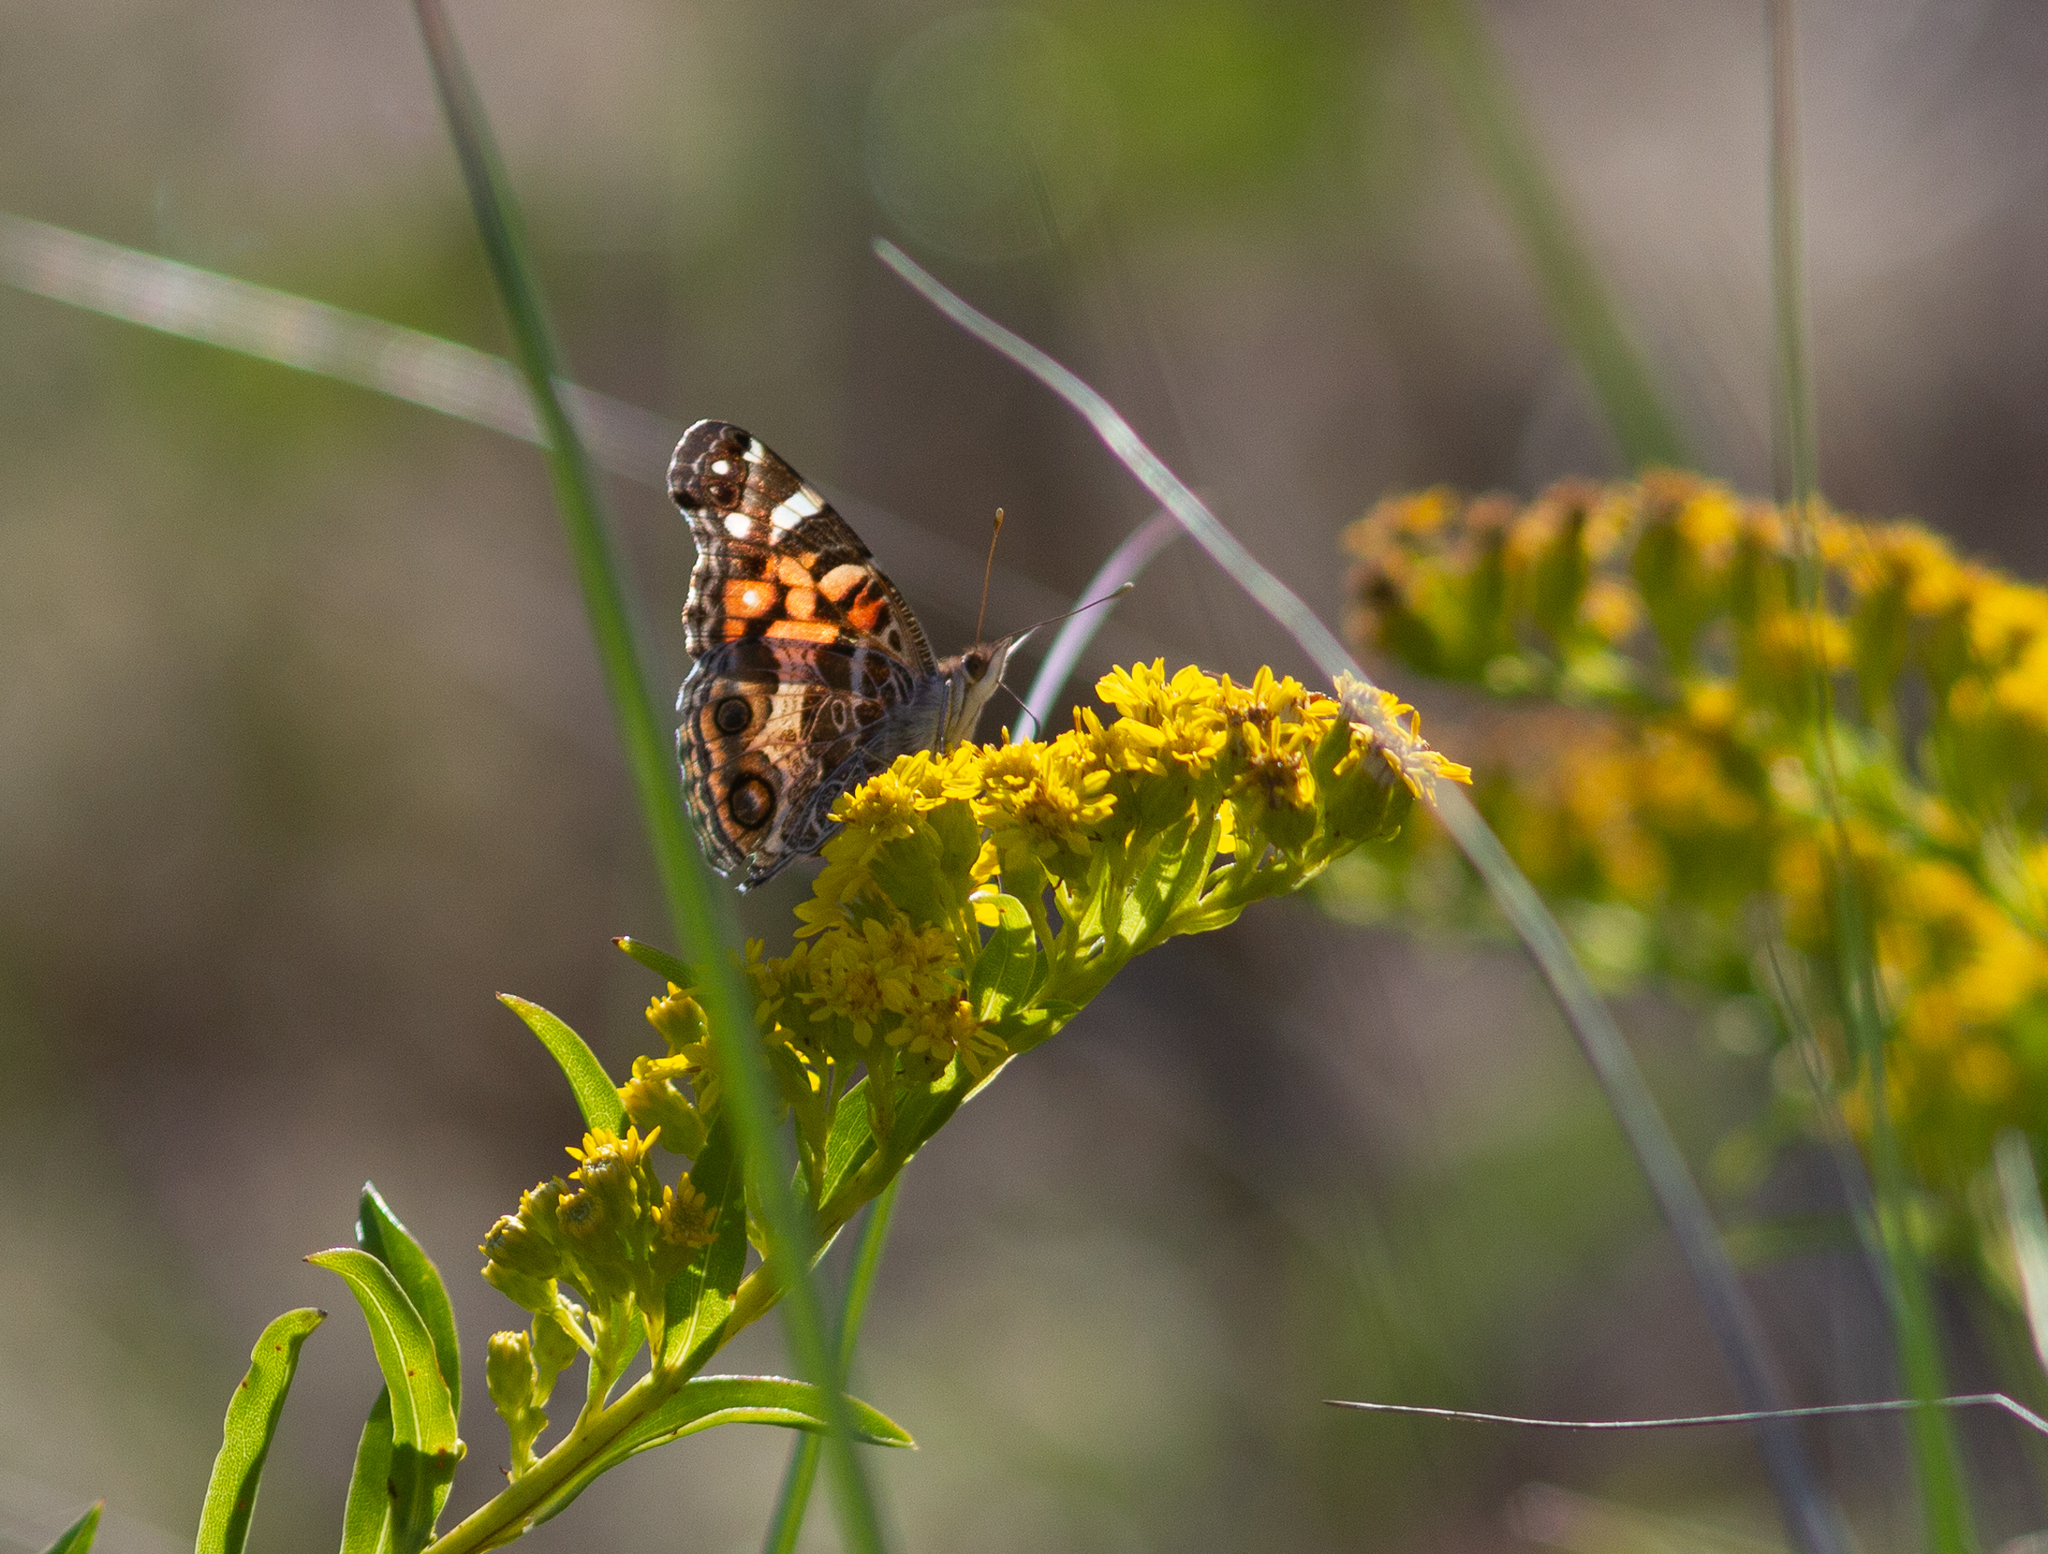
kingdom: Animalia
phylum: Arthropoda
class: Insecta
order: Lepidoptera
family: Nymphalidae
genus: Vanessa
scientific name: Vanessa virginiensis
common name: American lady
